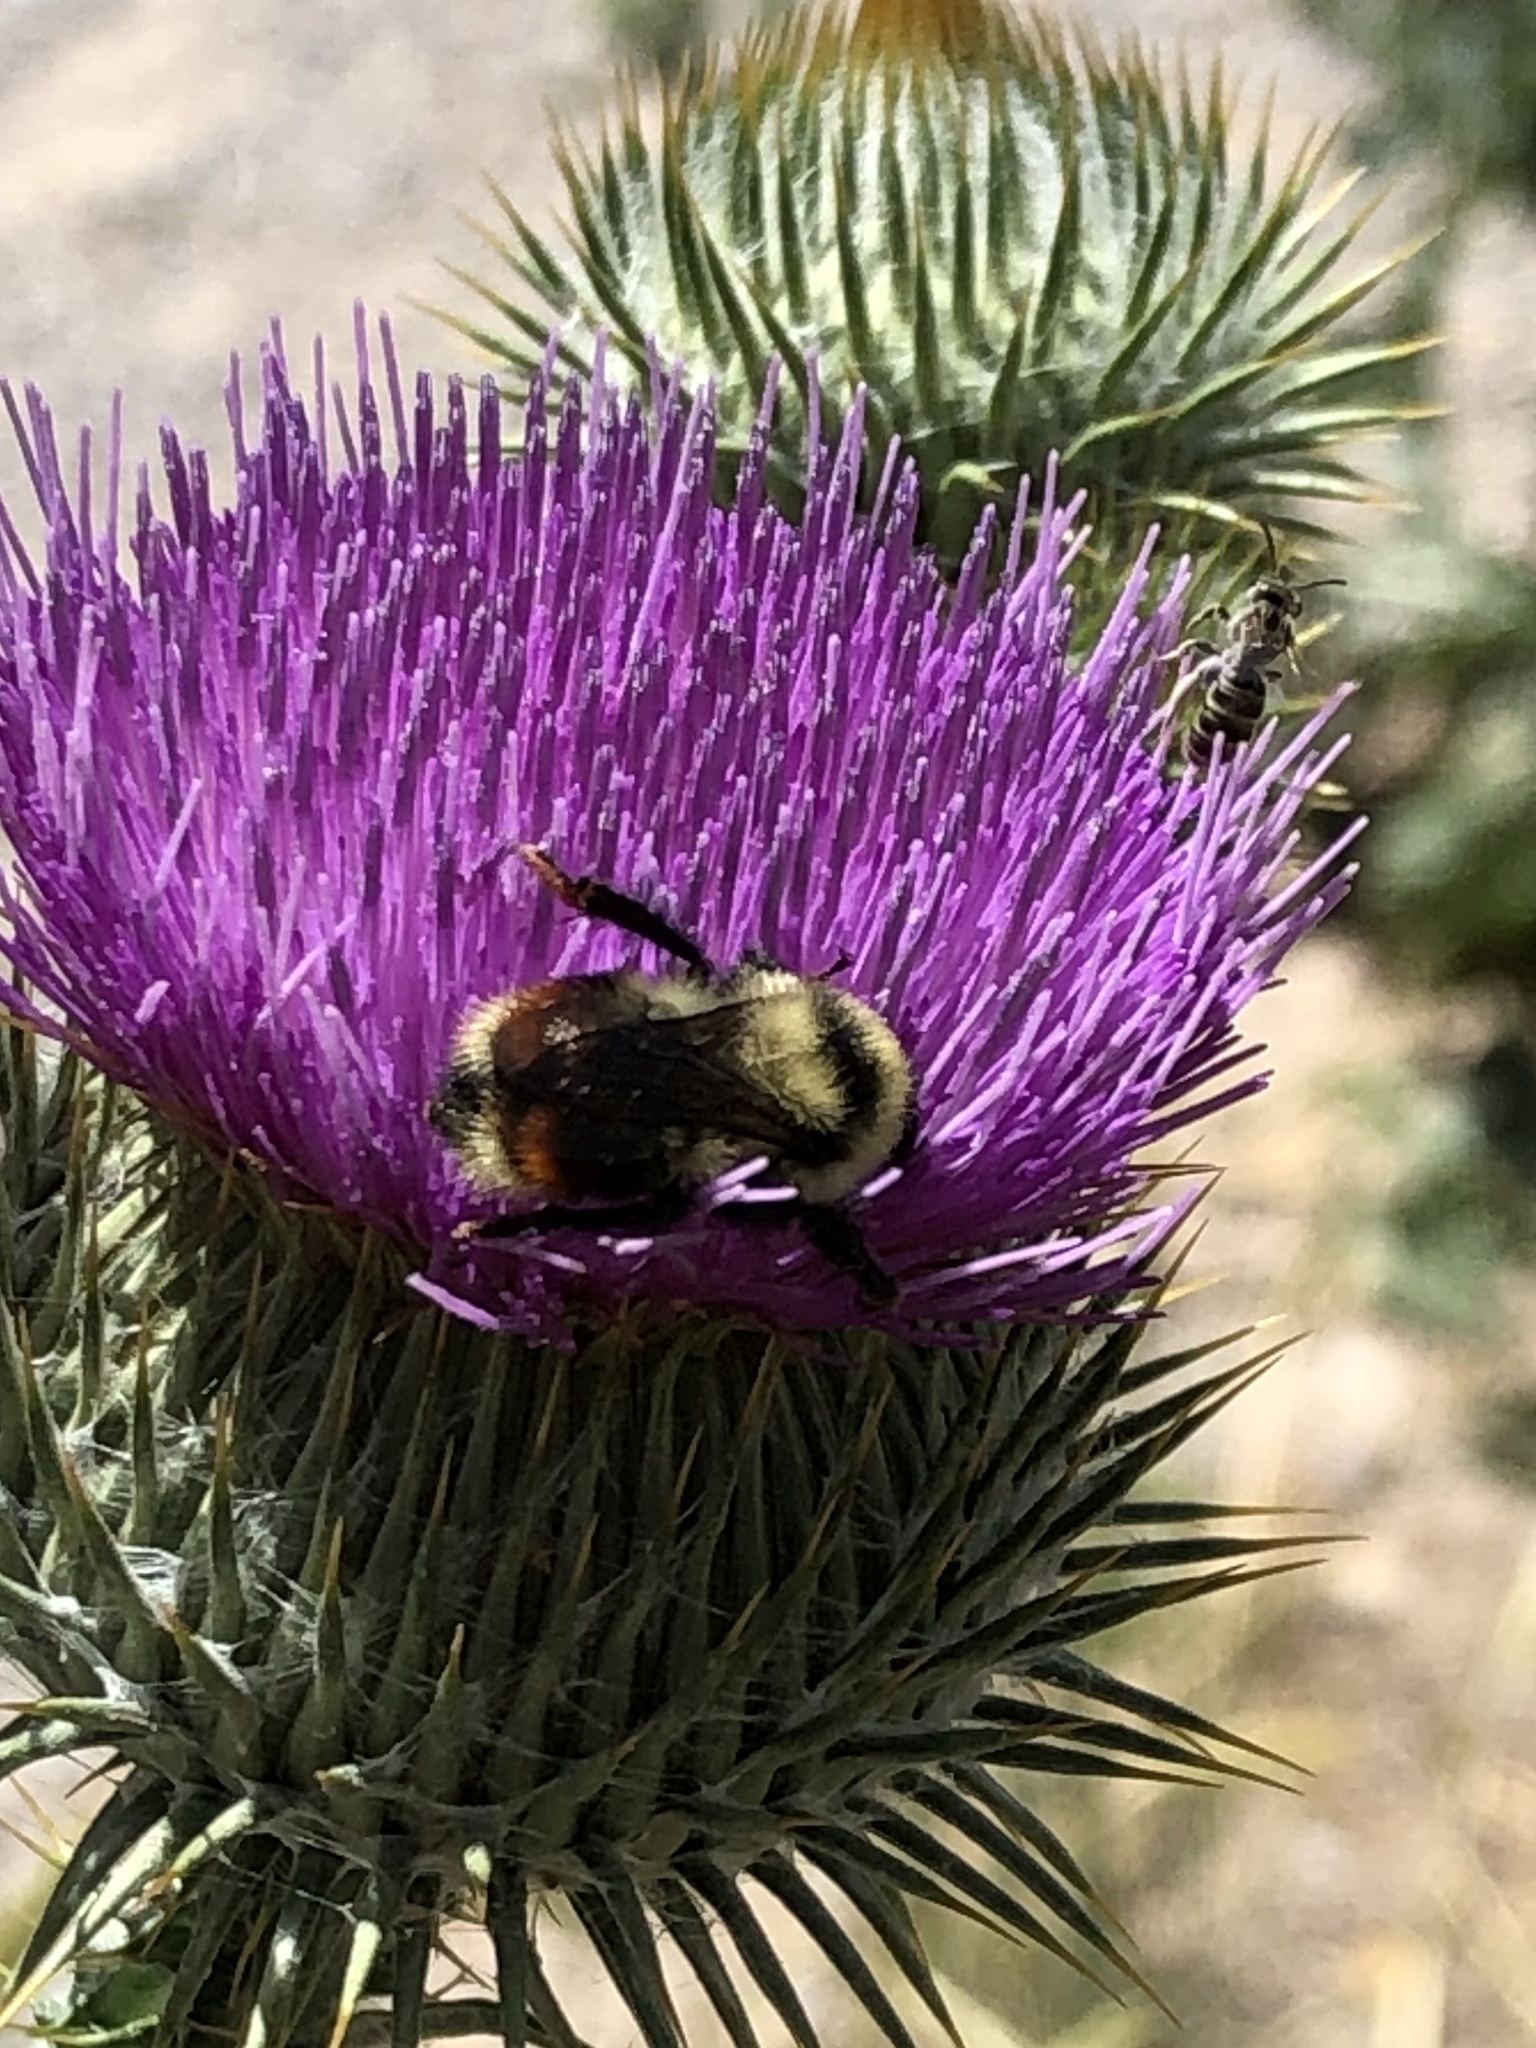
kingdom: Animalia
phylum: Arthropoda
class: Insecta
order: Hymenoptera
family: Apidae
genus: Pyrobombus
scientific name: Pyrobombus
